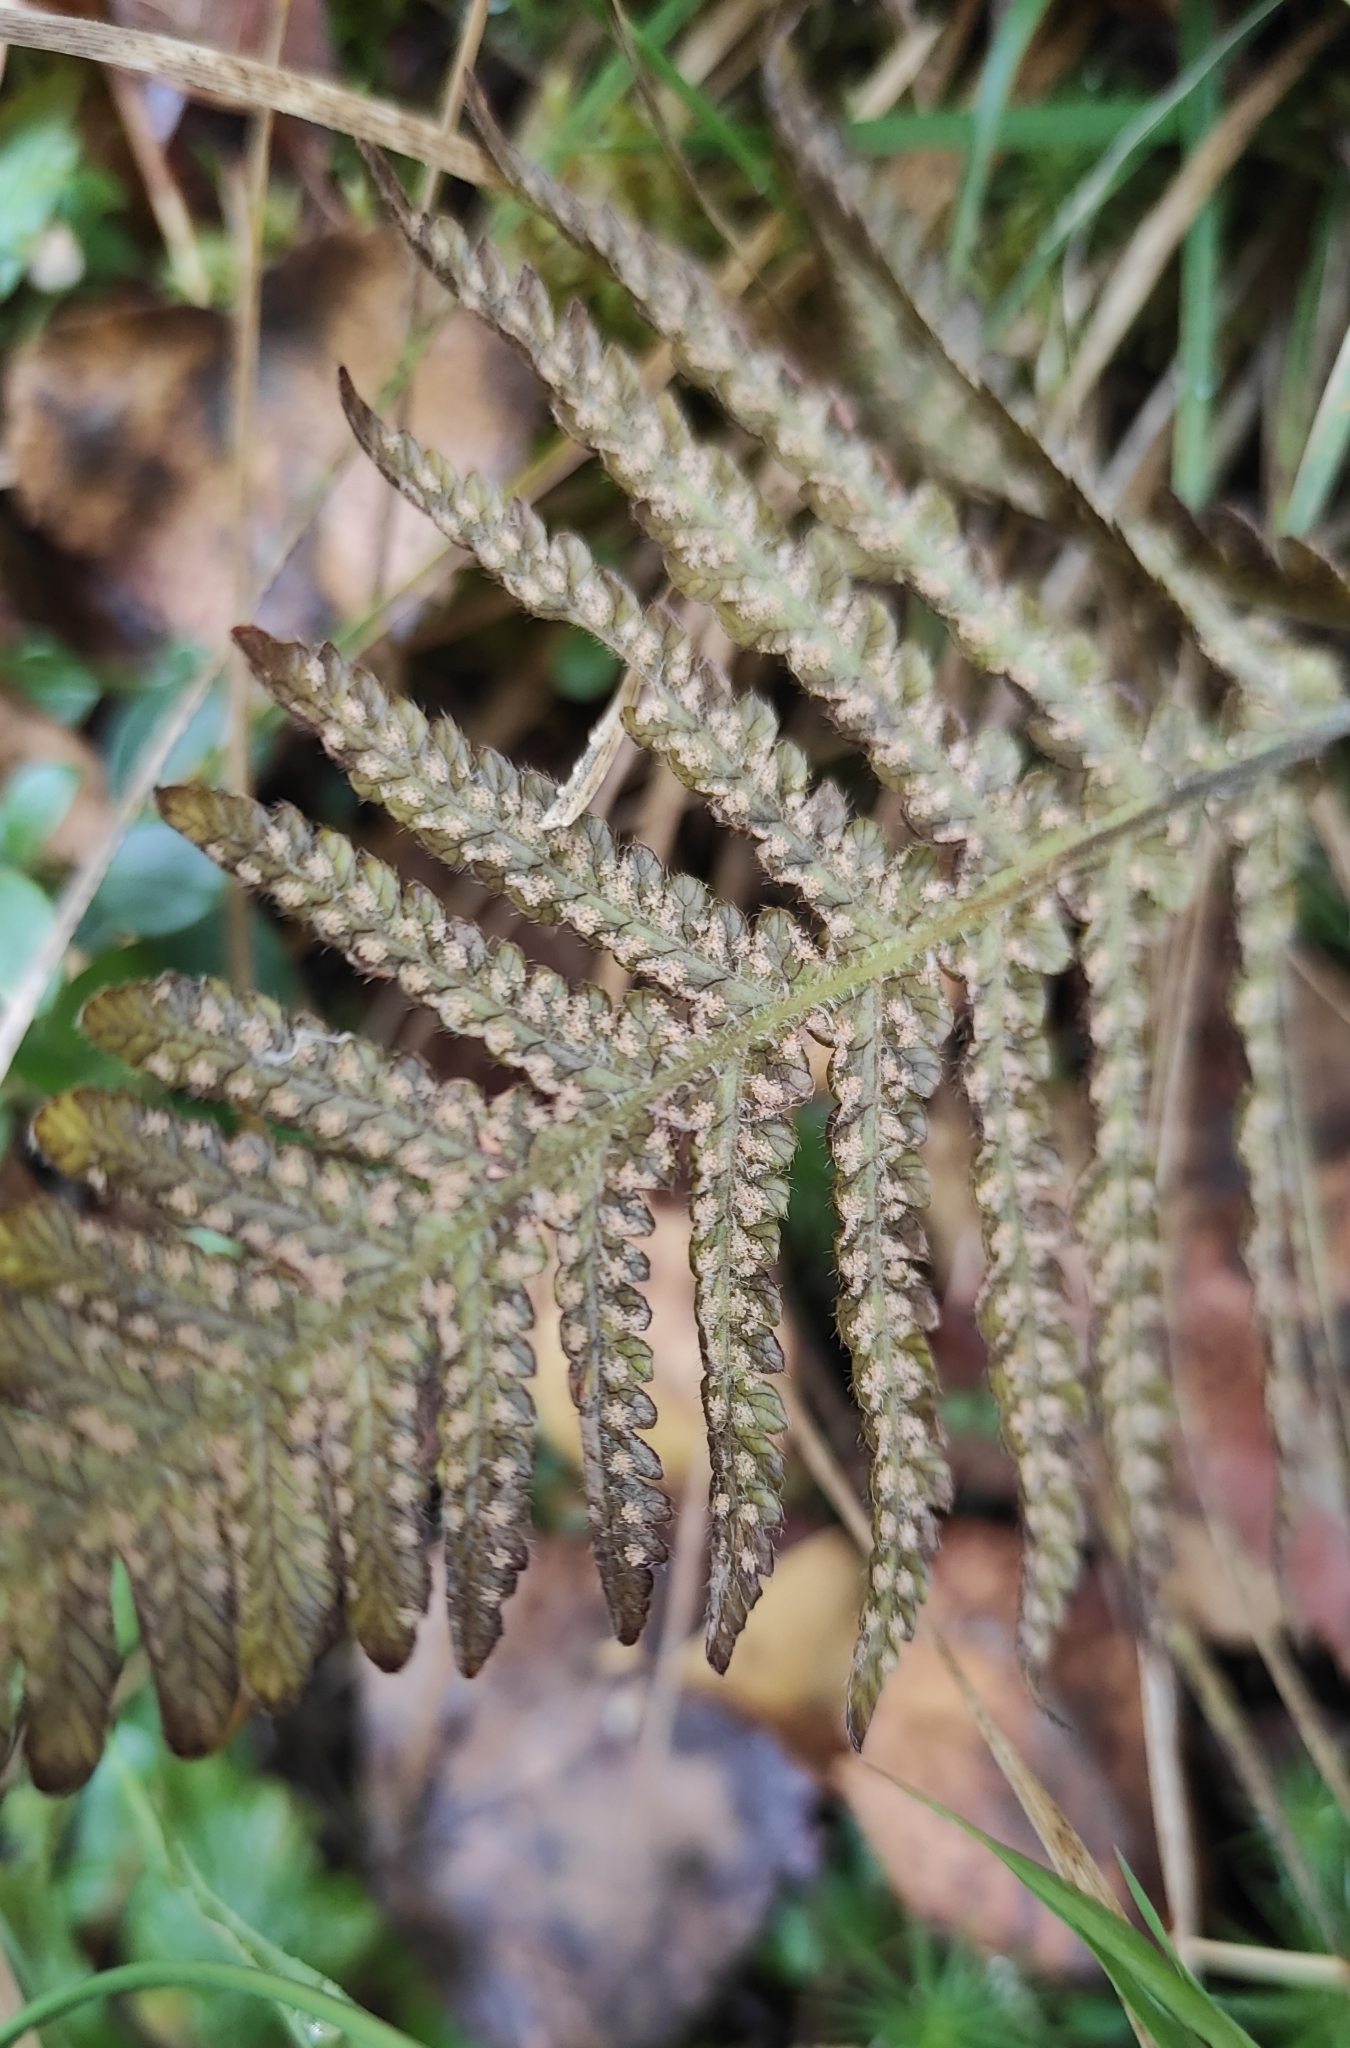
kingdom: Plantae
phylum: Tracheophyta
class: Polypodiopsida
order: Polypodiales
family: Thelypteridaceae
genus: Phegopteris
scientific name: Phegopteris connectilis
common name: Beech fern
